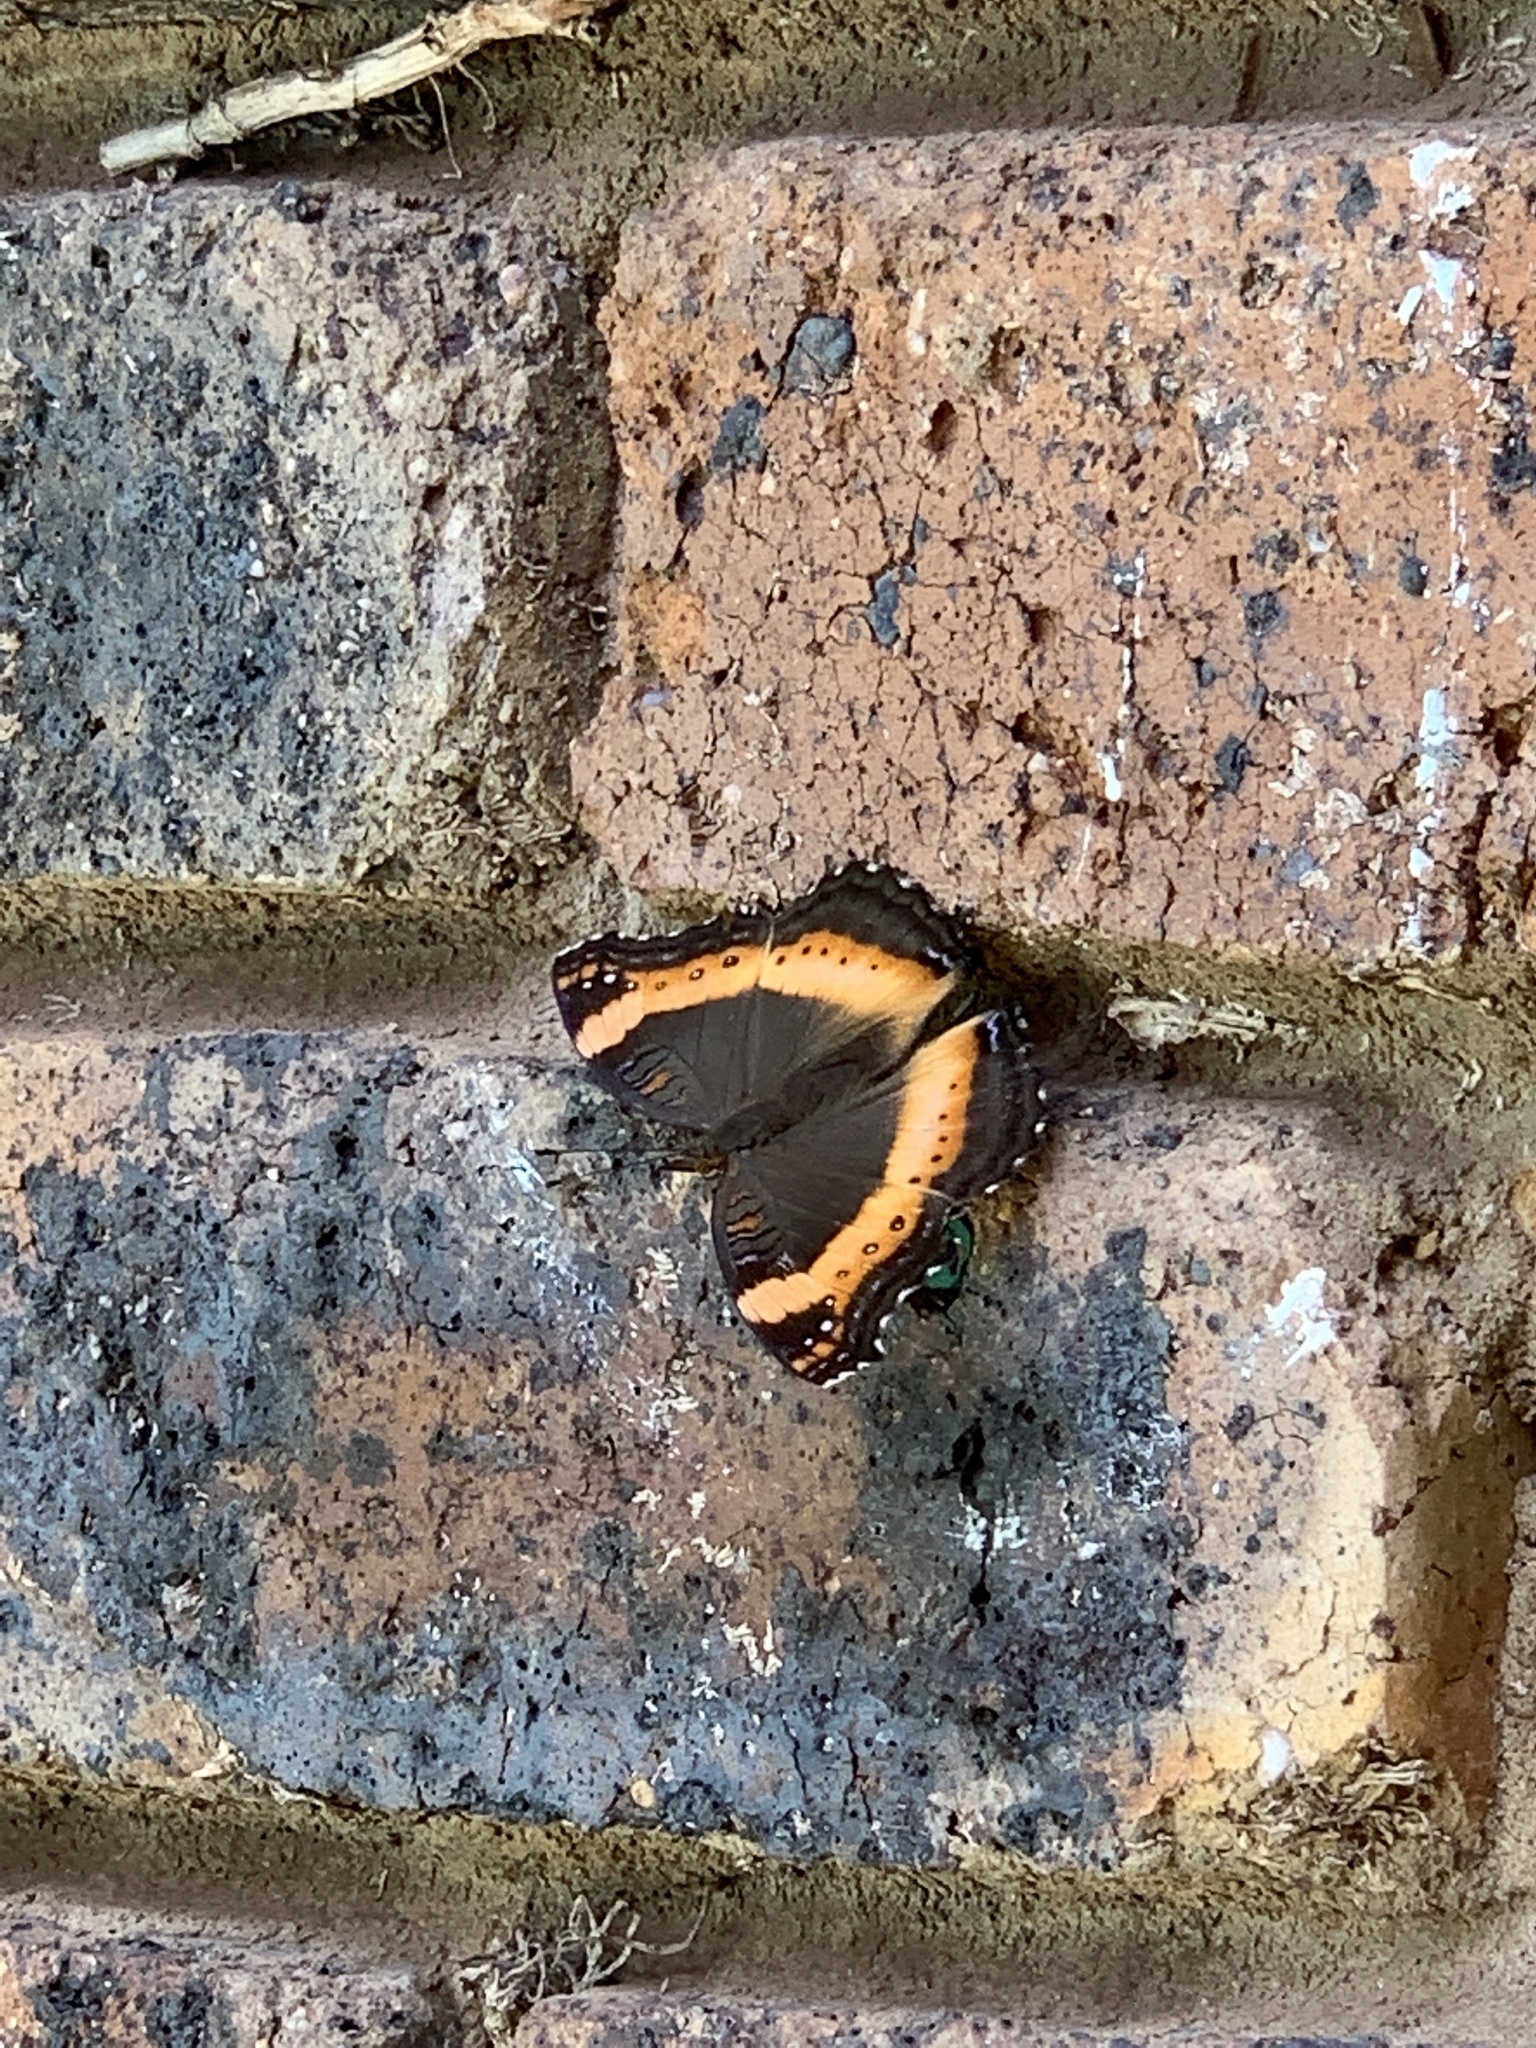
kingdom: Animalia
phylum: Arthropoda
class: Insecta
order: Lepidoptera
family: Nymphalidae
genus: Junonia
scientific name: Junonia archesia
